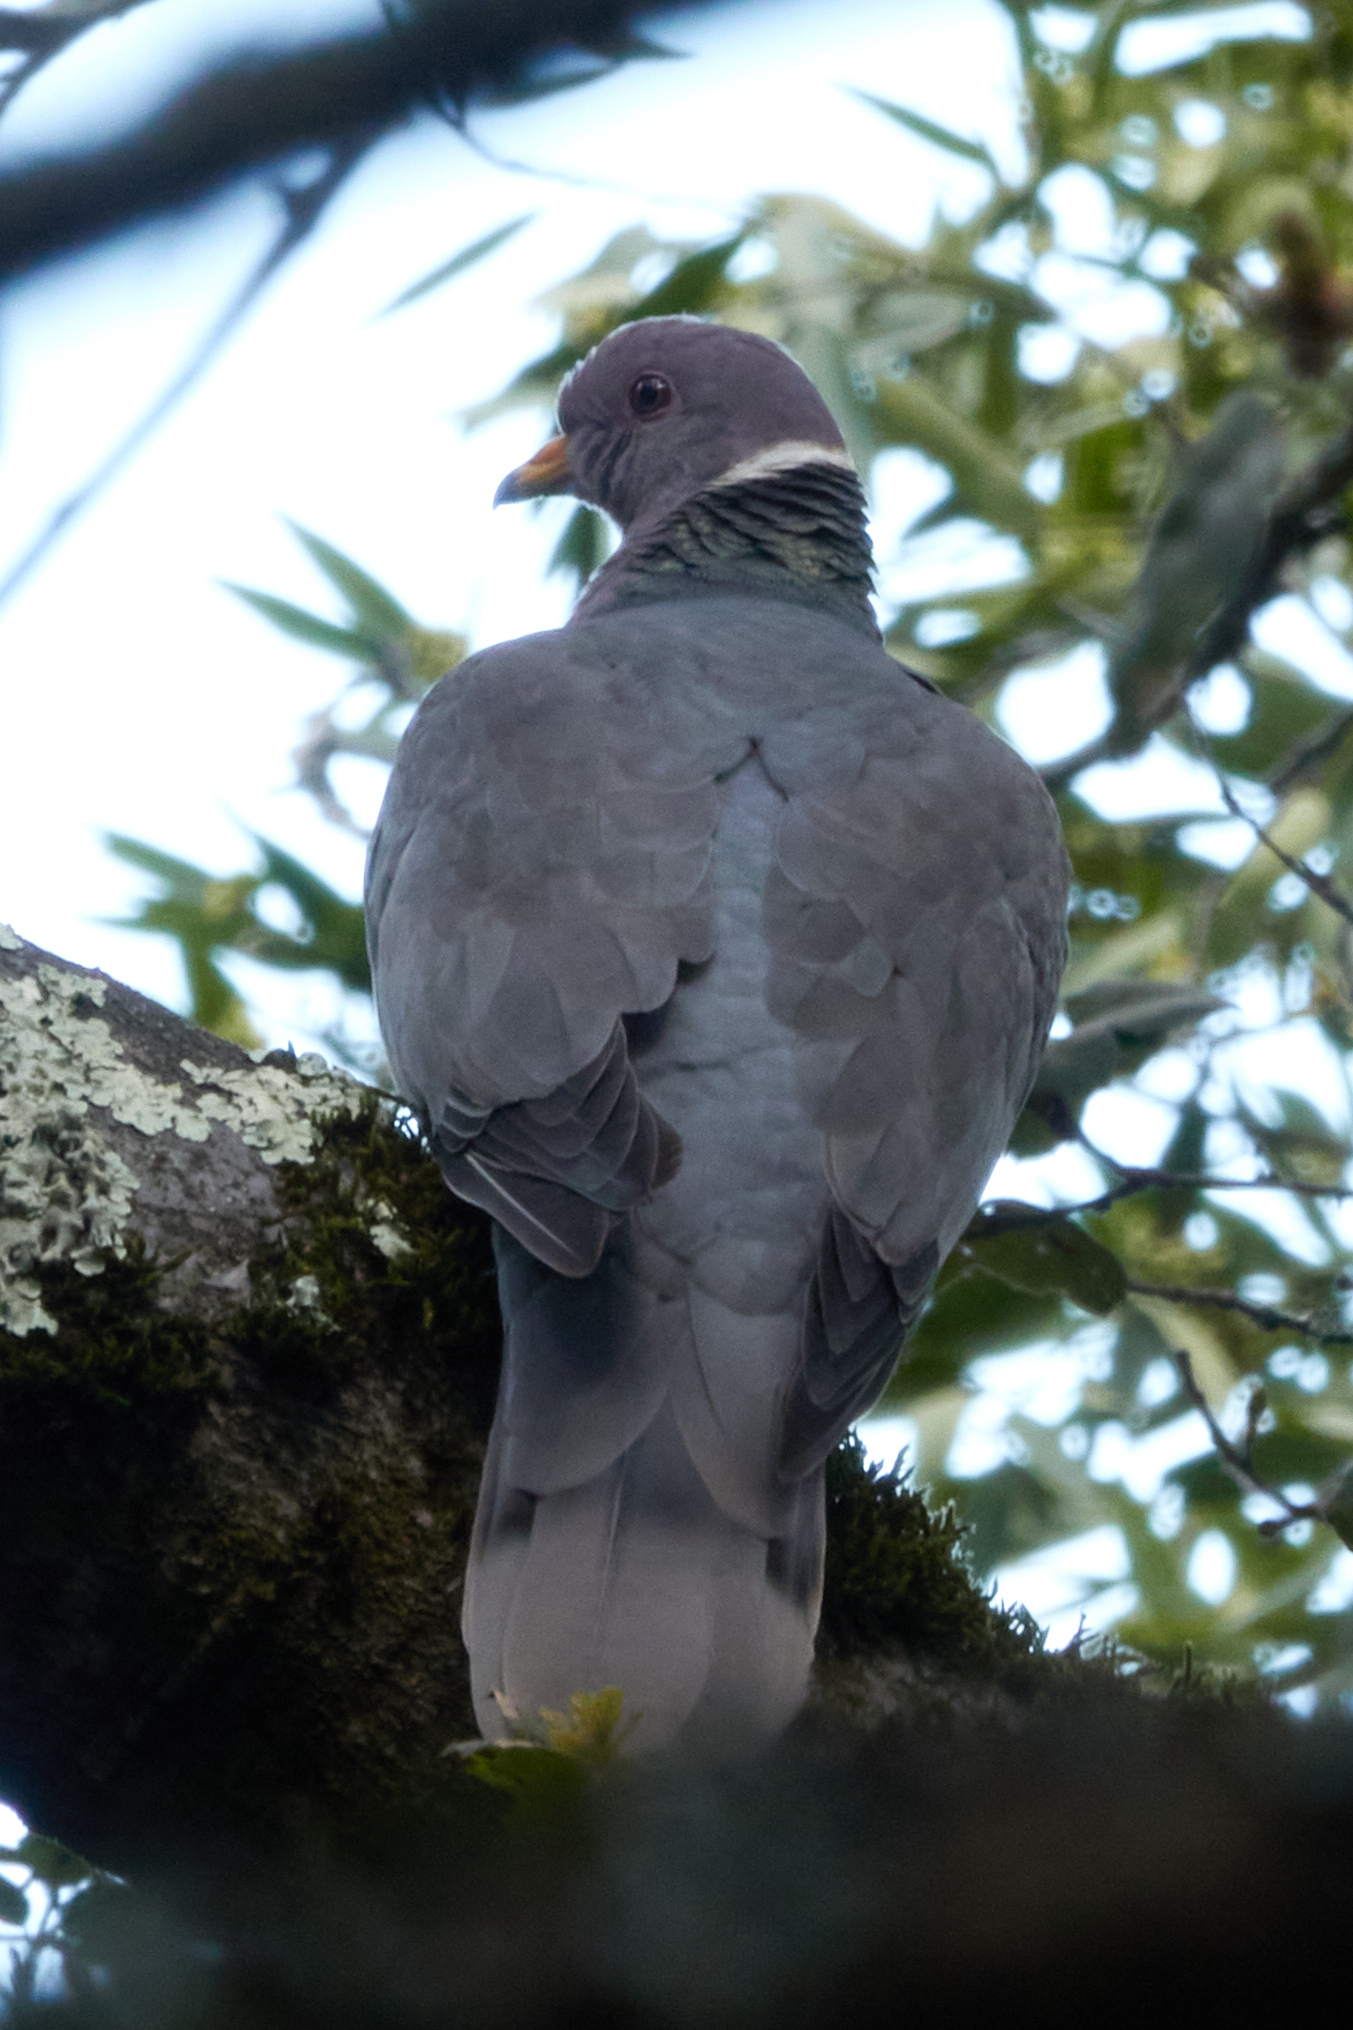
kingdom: Animalia
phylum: Chordata
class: Aves
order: Columbiformes
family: Columbidae
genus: Patagioenas
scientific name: Patagioenas fasciata
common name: Band-tailed pigeon
